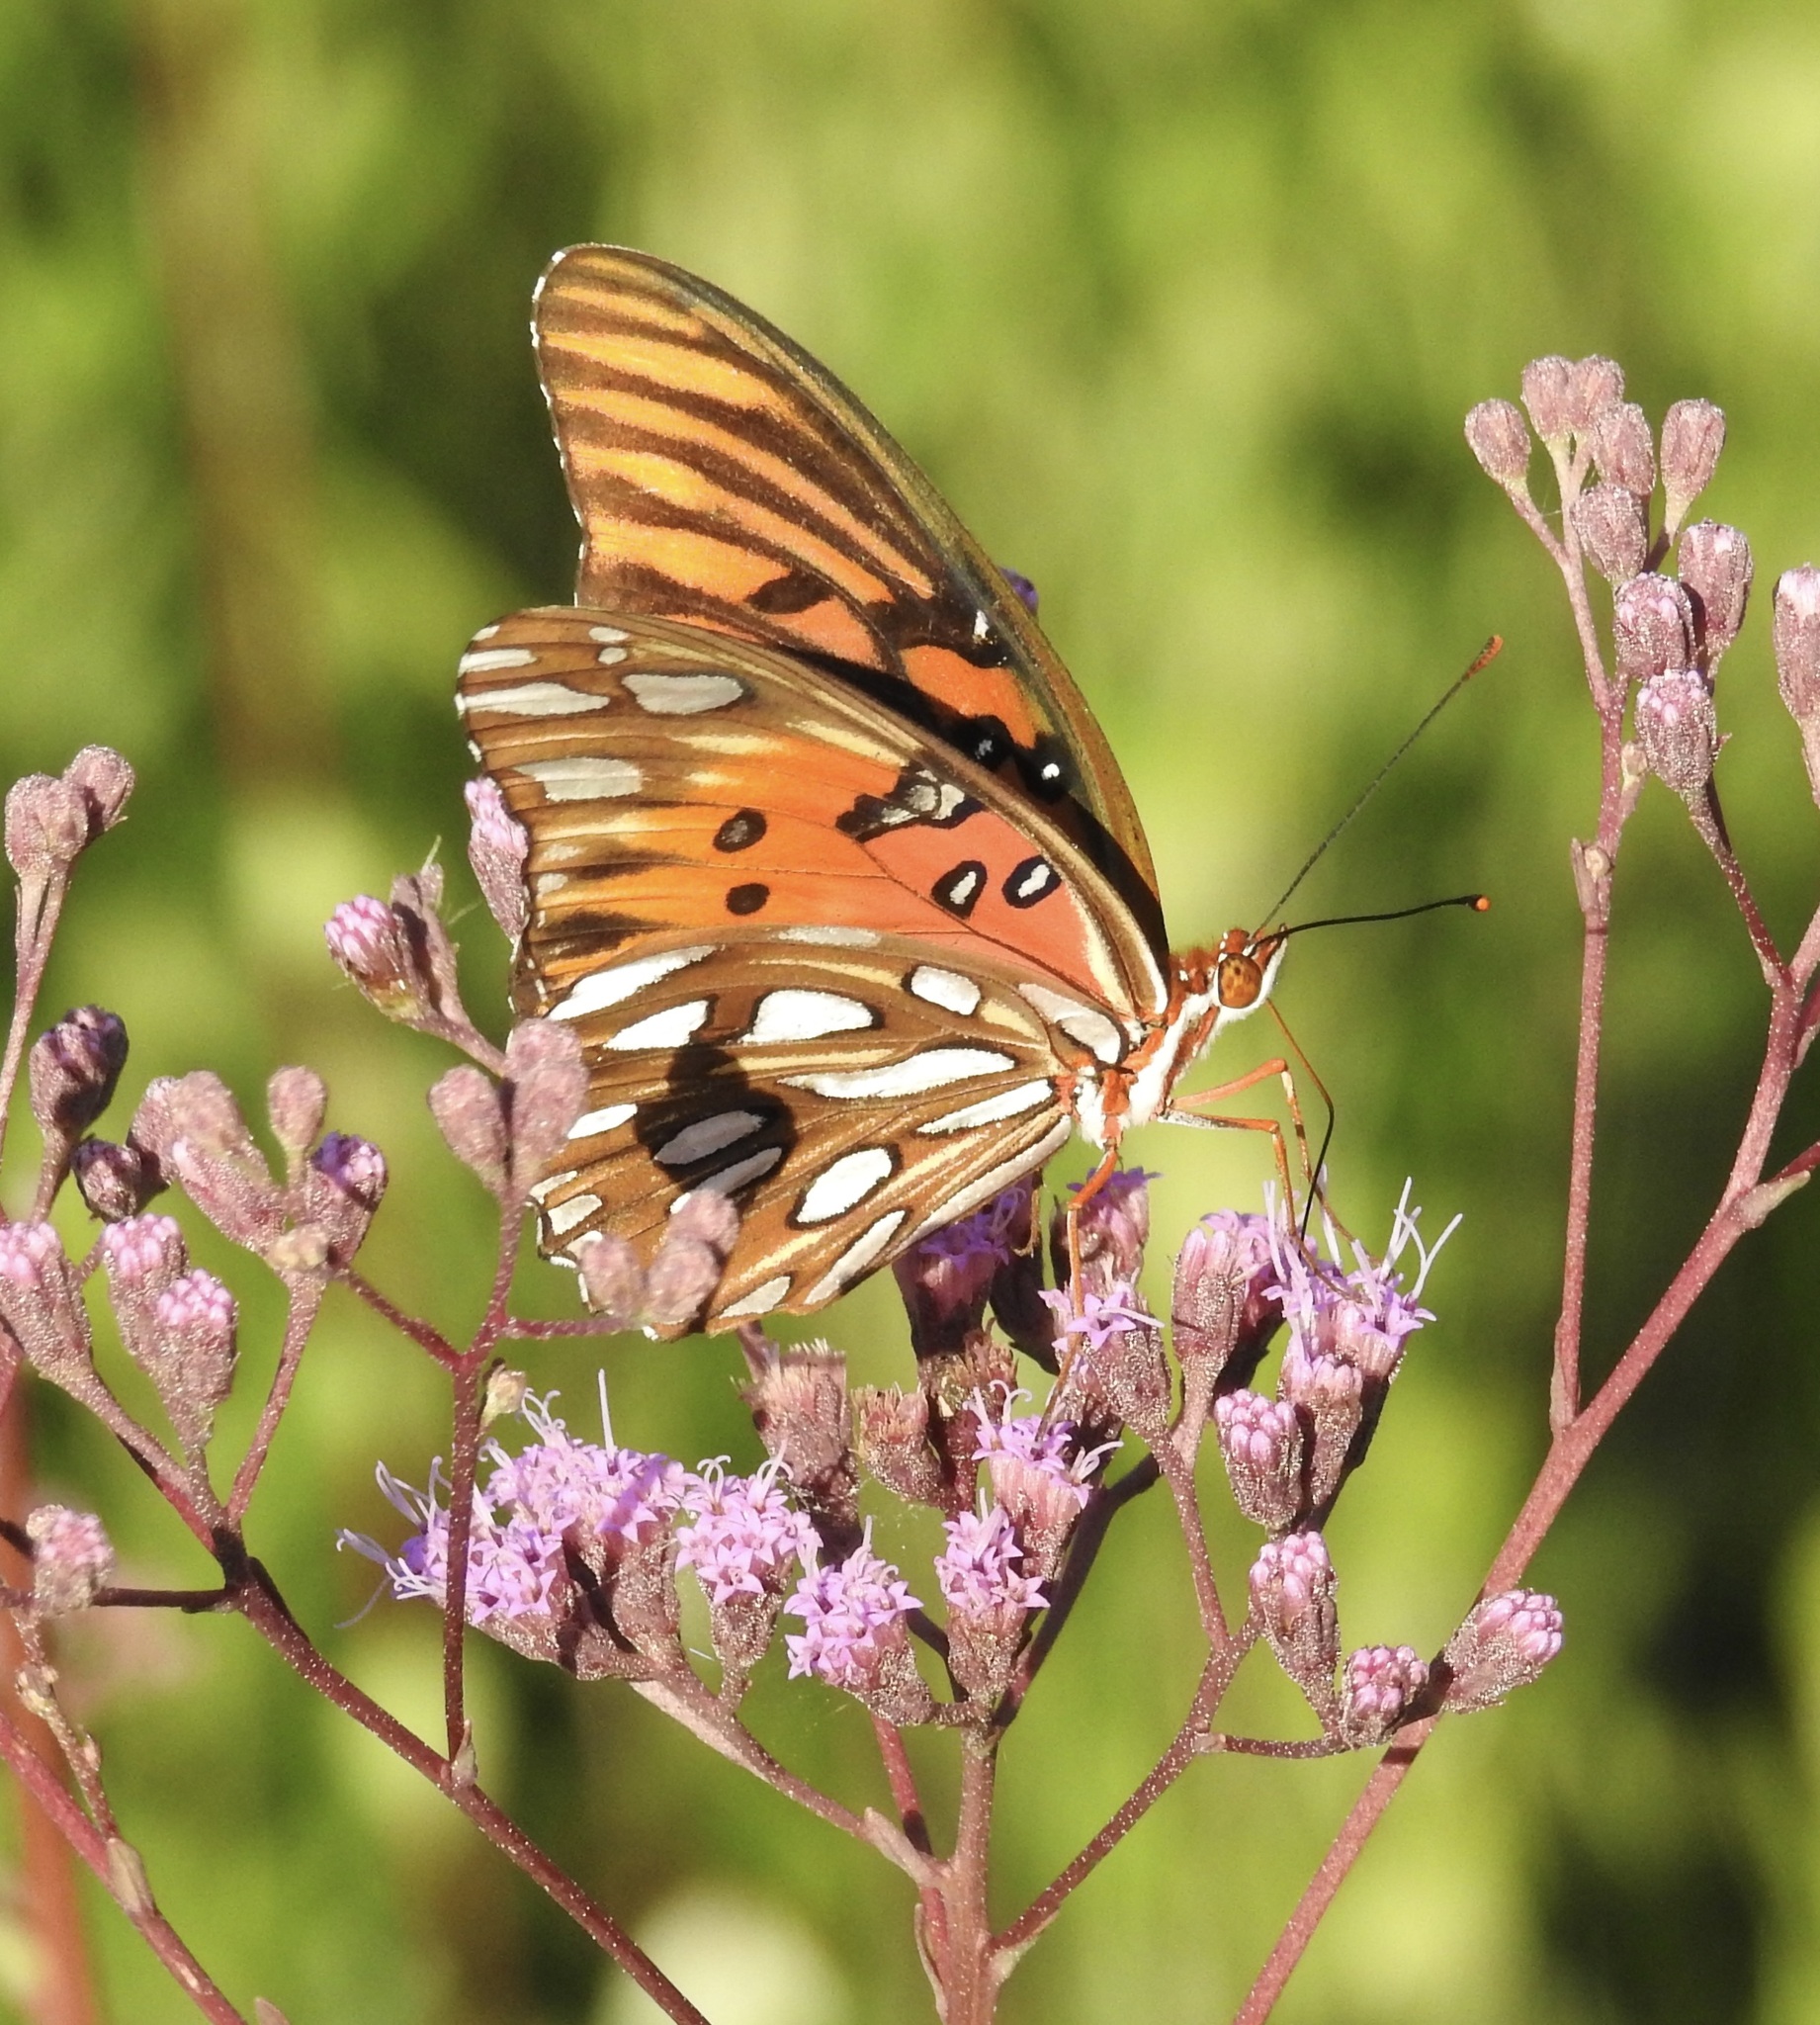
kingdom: Animalia
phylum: Arthropoda
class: Insecta
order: Lepidoptera
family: Nymphalidae
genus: Dione
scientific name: Dione vanillae
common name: Gulf fritillary
